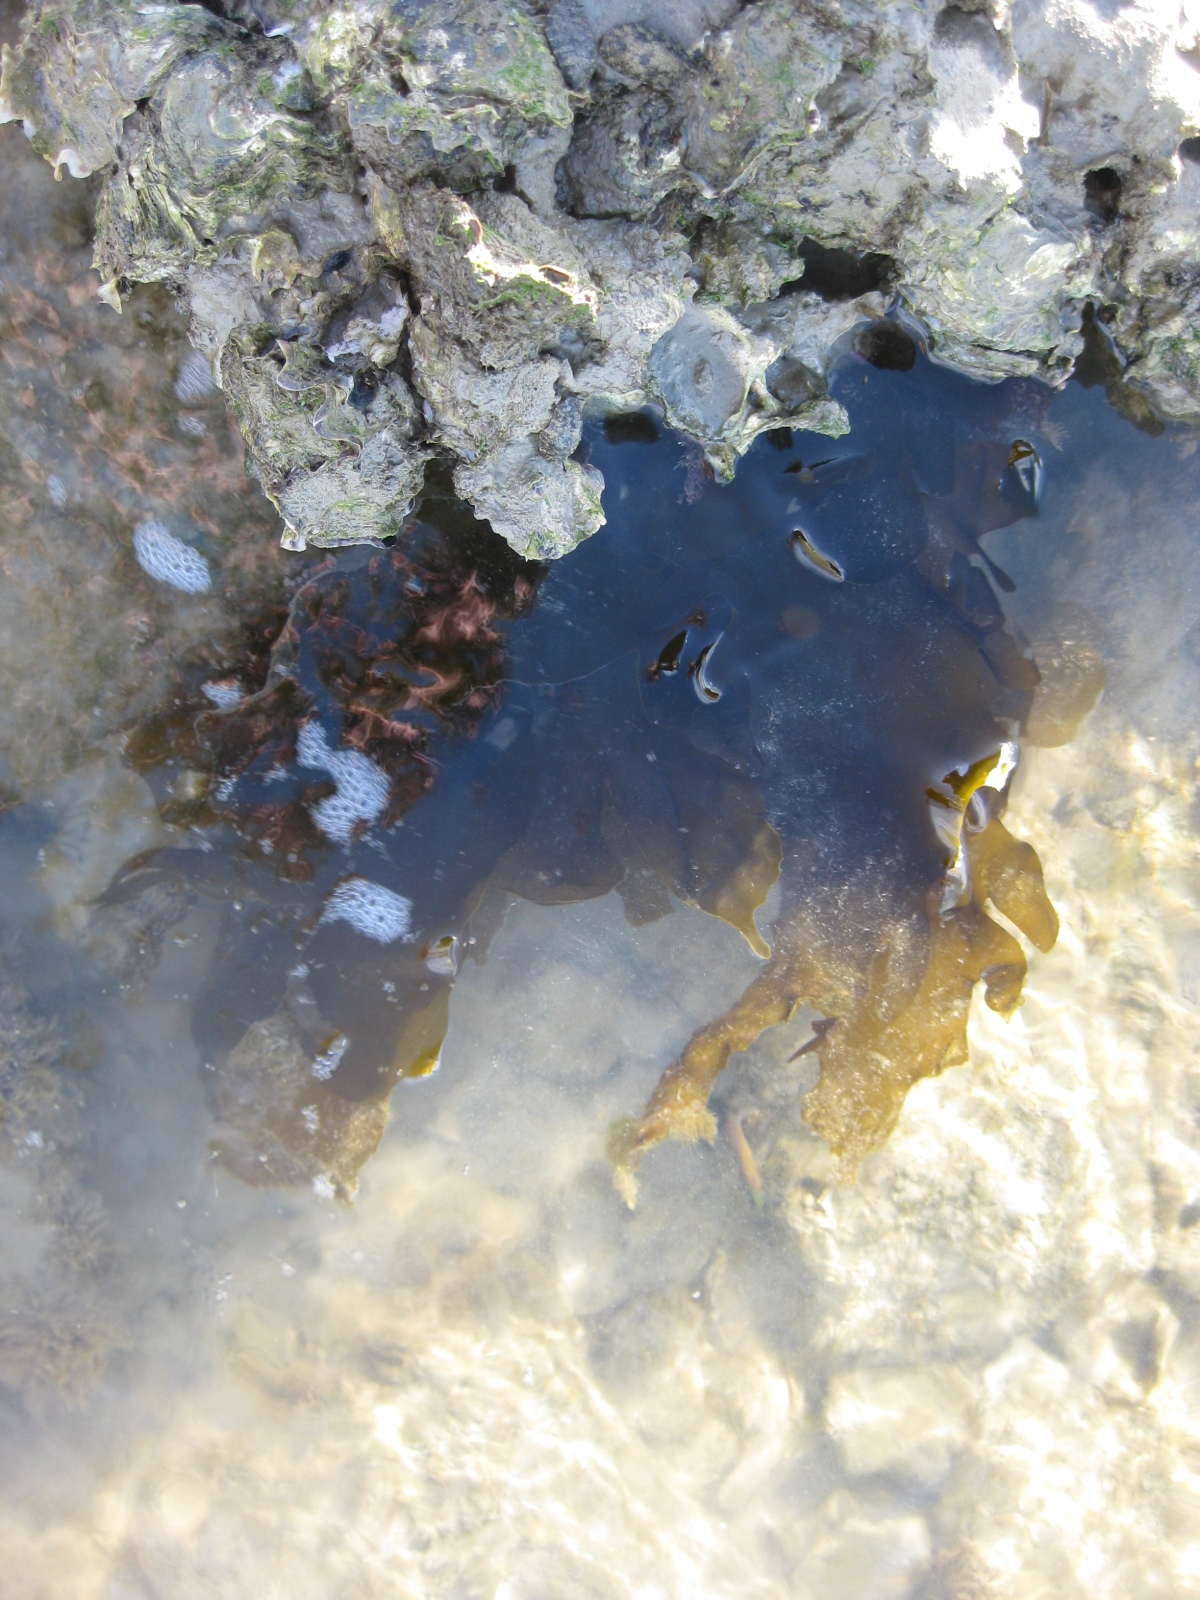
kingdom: Chromista
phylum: Ochrophyta
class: Phaeophyceae
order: Laminariales
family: Lessoniaceae
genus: Ecklonia
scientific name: Ecklonia radiata
